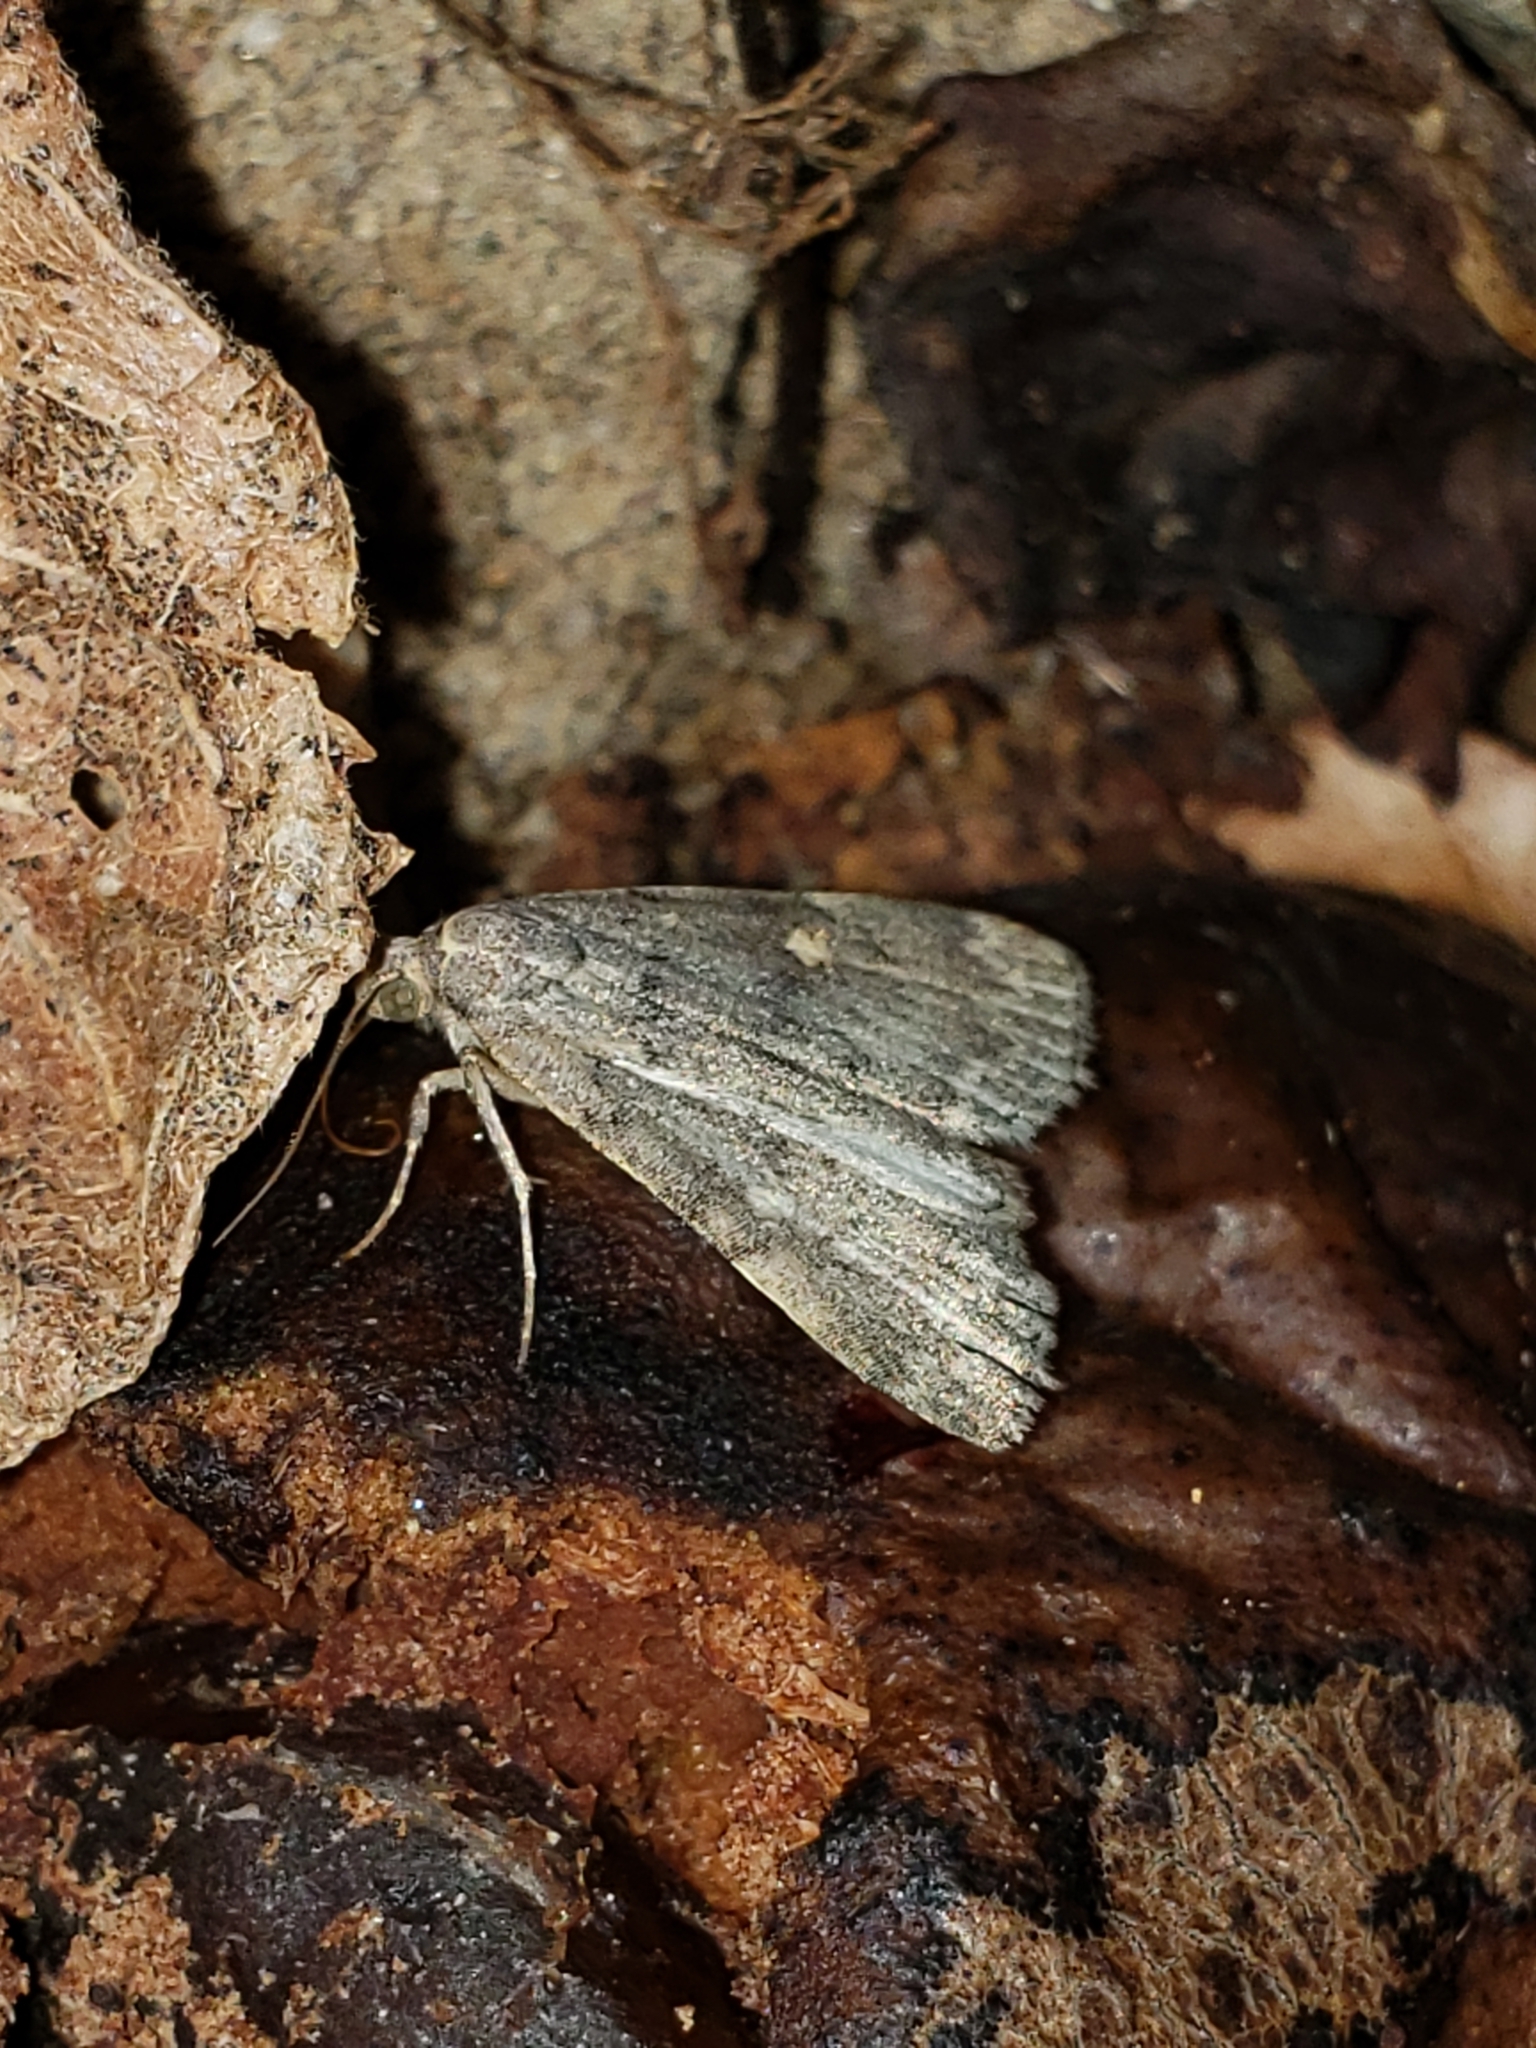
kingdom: Animalia
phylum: Arthropoda
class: Insecta
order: Lepidoptera
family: Erebidae
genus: Idia
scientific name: Idia aemula
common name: Common idia moth
